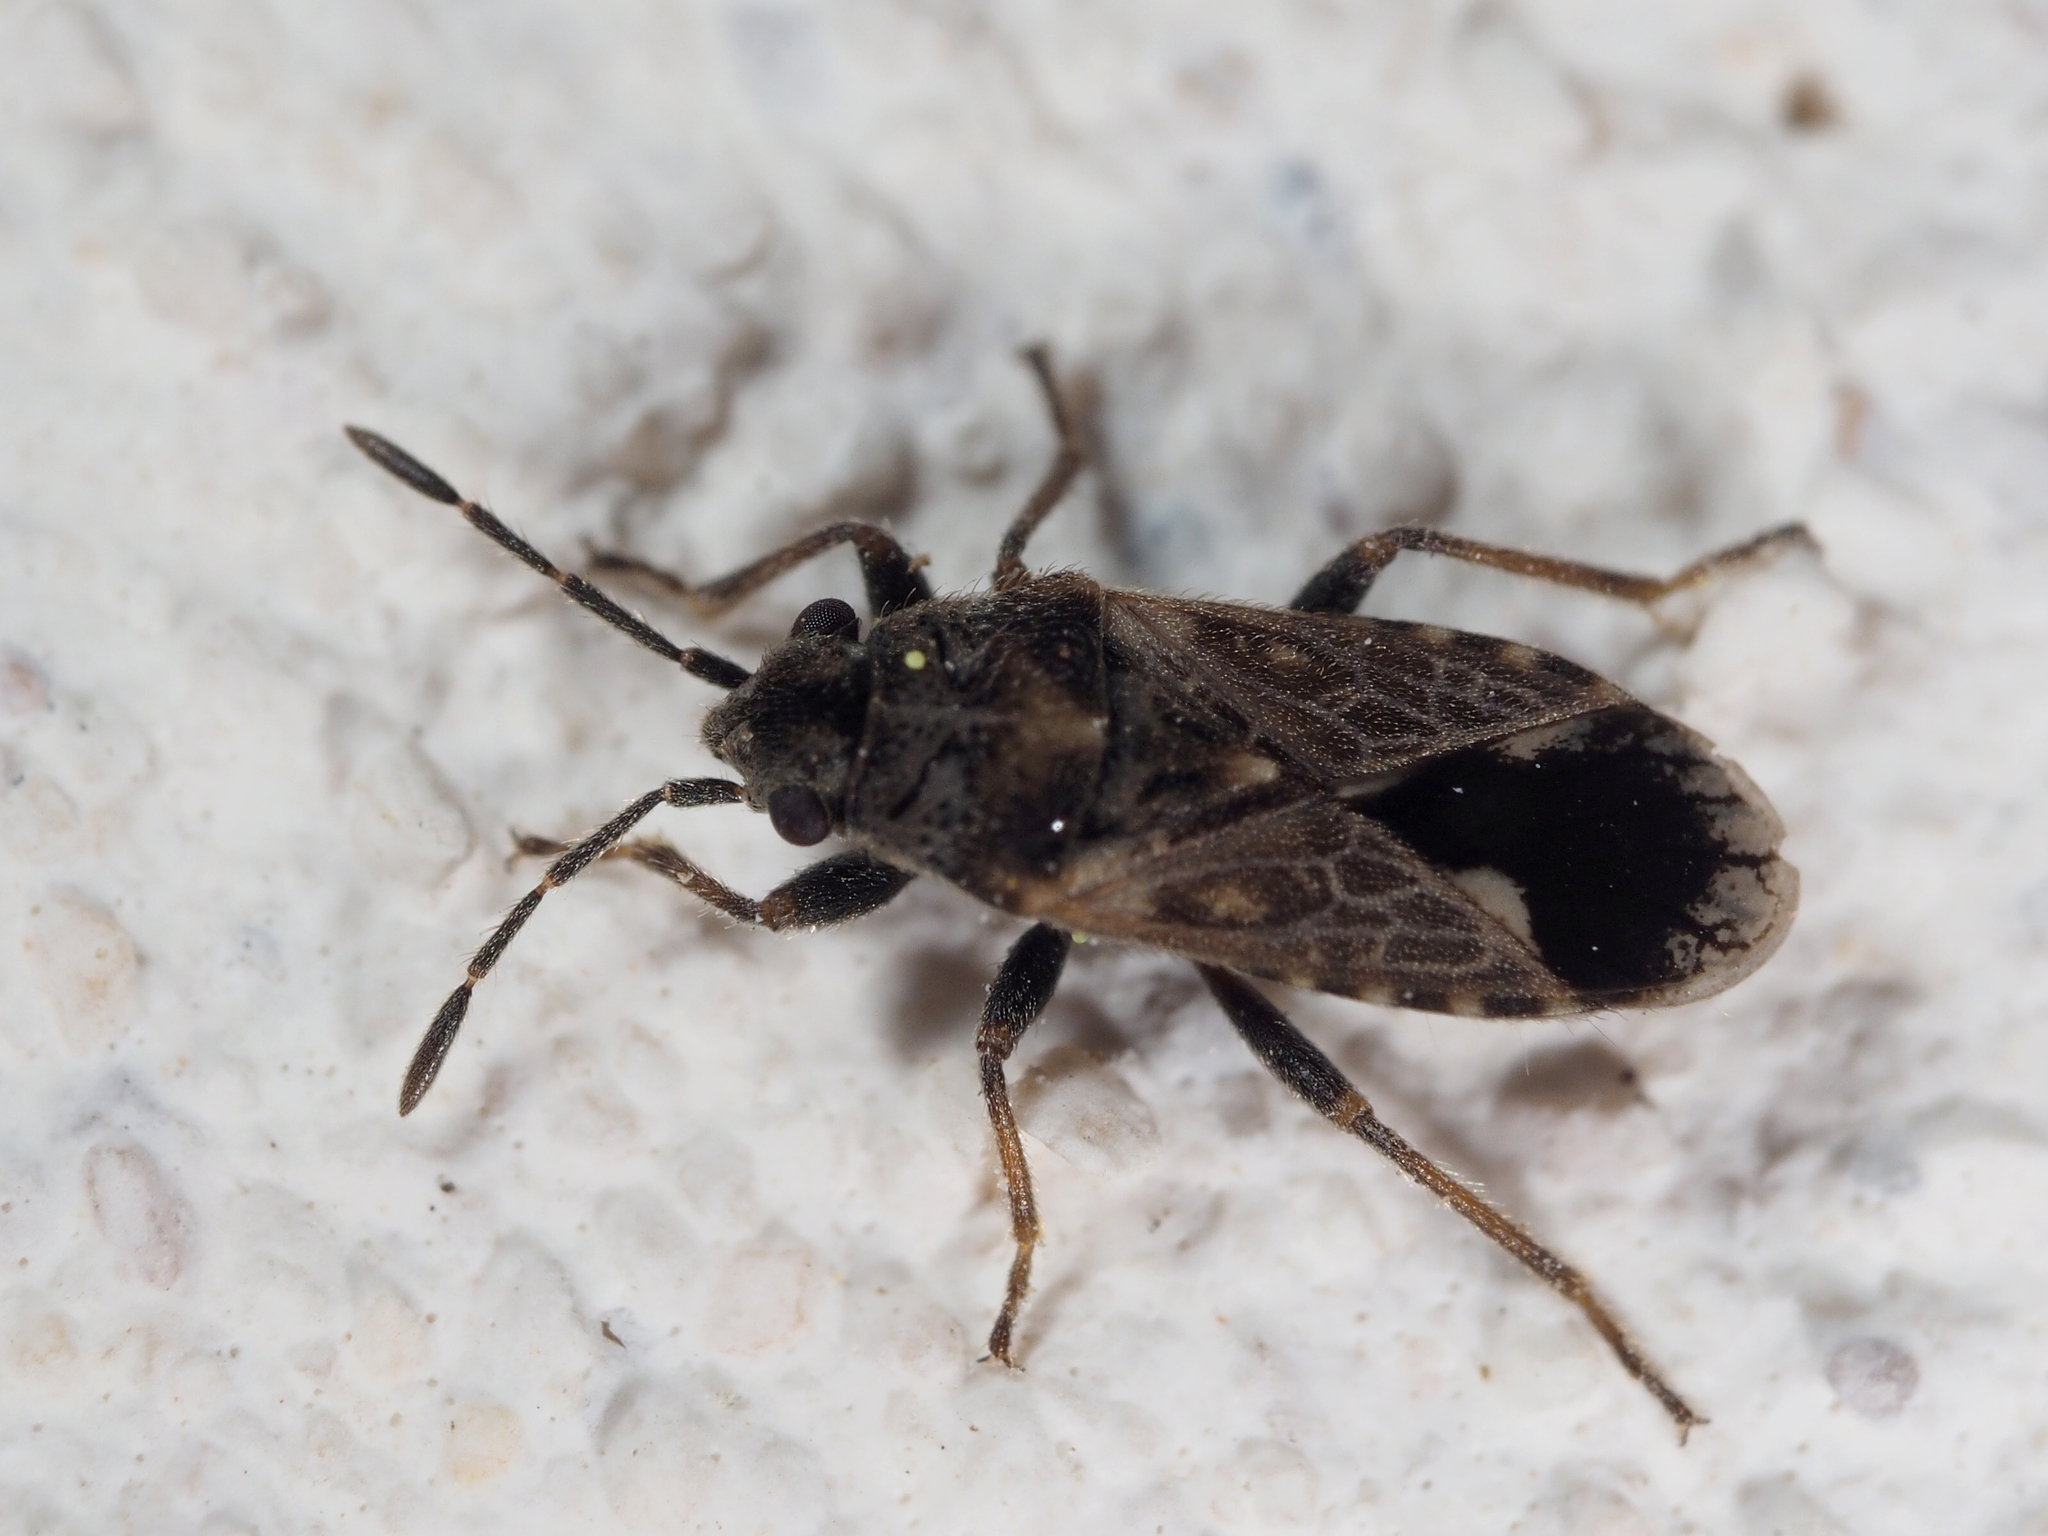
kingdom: Animalia
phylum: Arthropoda
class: Insecta
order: Hemiptera
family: Lygaeidae
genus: Lygaeosoma
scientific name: Lygaeosoma sardeum
